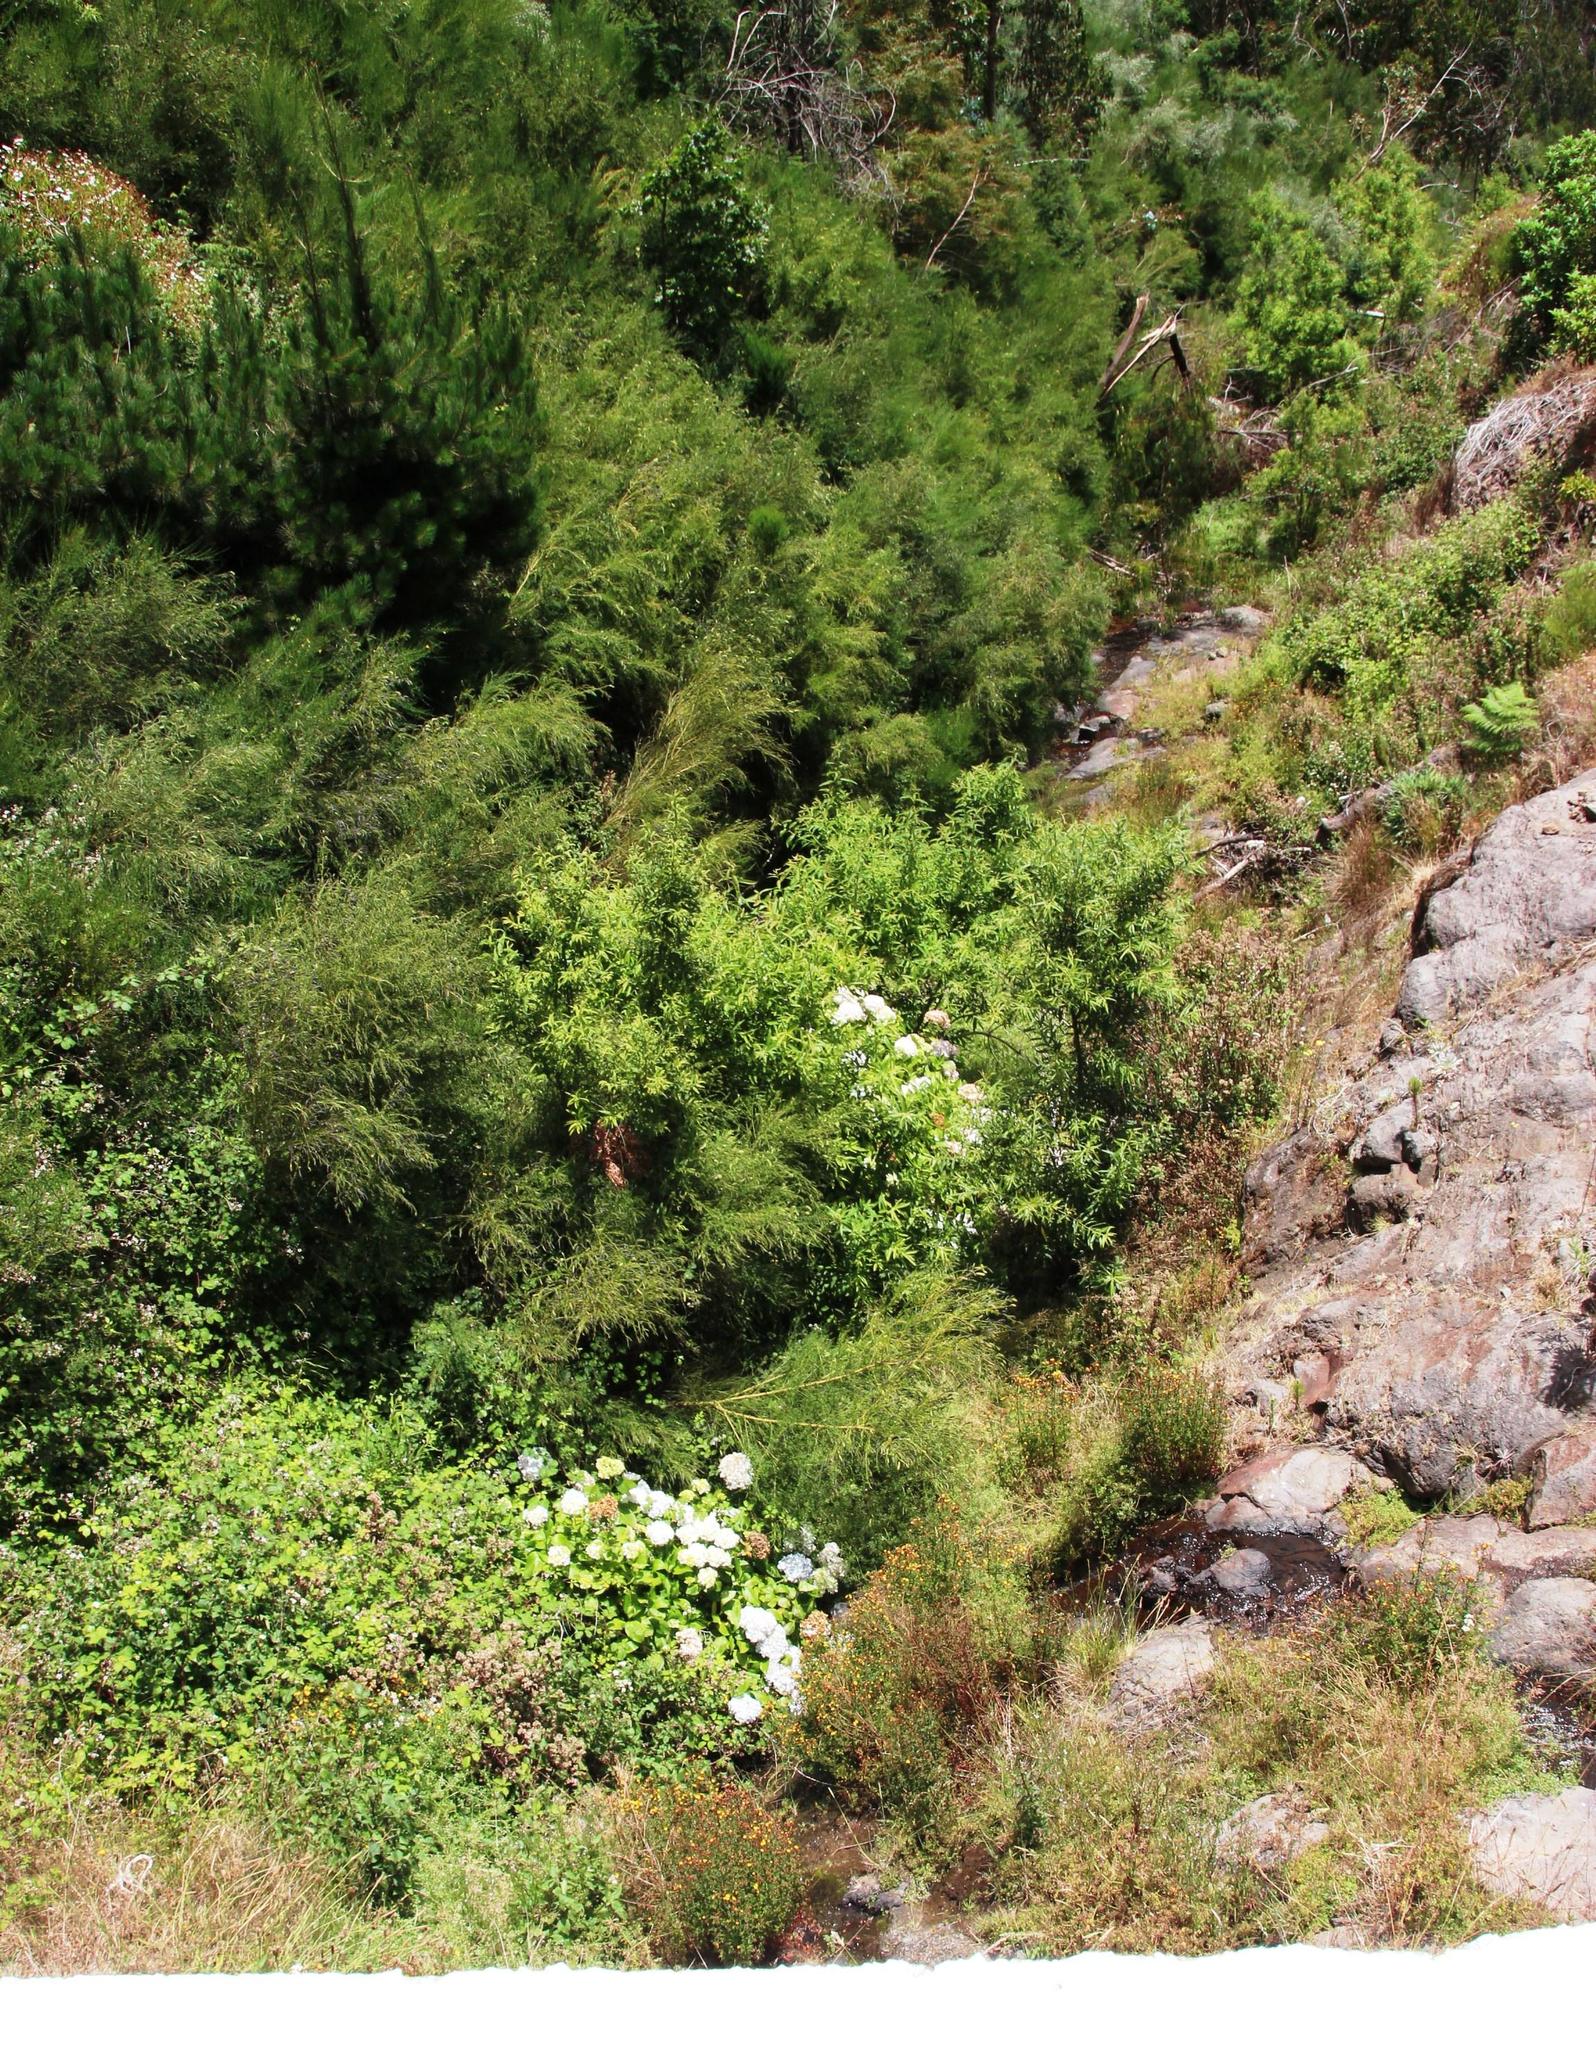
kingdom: Plantae
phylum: Tracheophyta
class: Magnoliopsida
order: Cornales
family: Hydrangeaceae
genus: Hydrangea
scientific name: Hydrangea macrophylla
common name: Hydrangea
